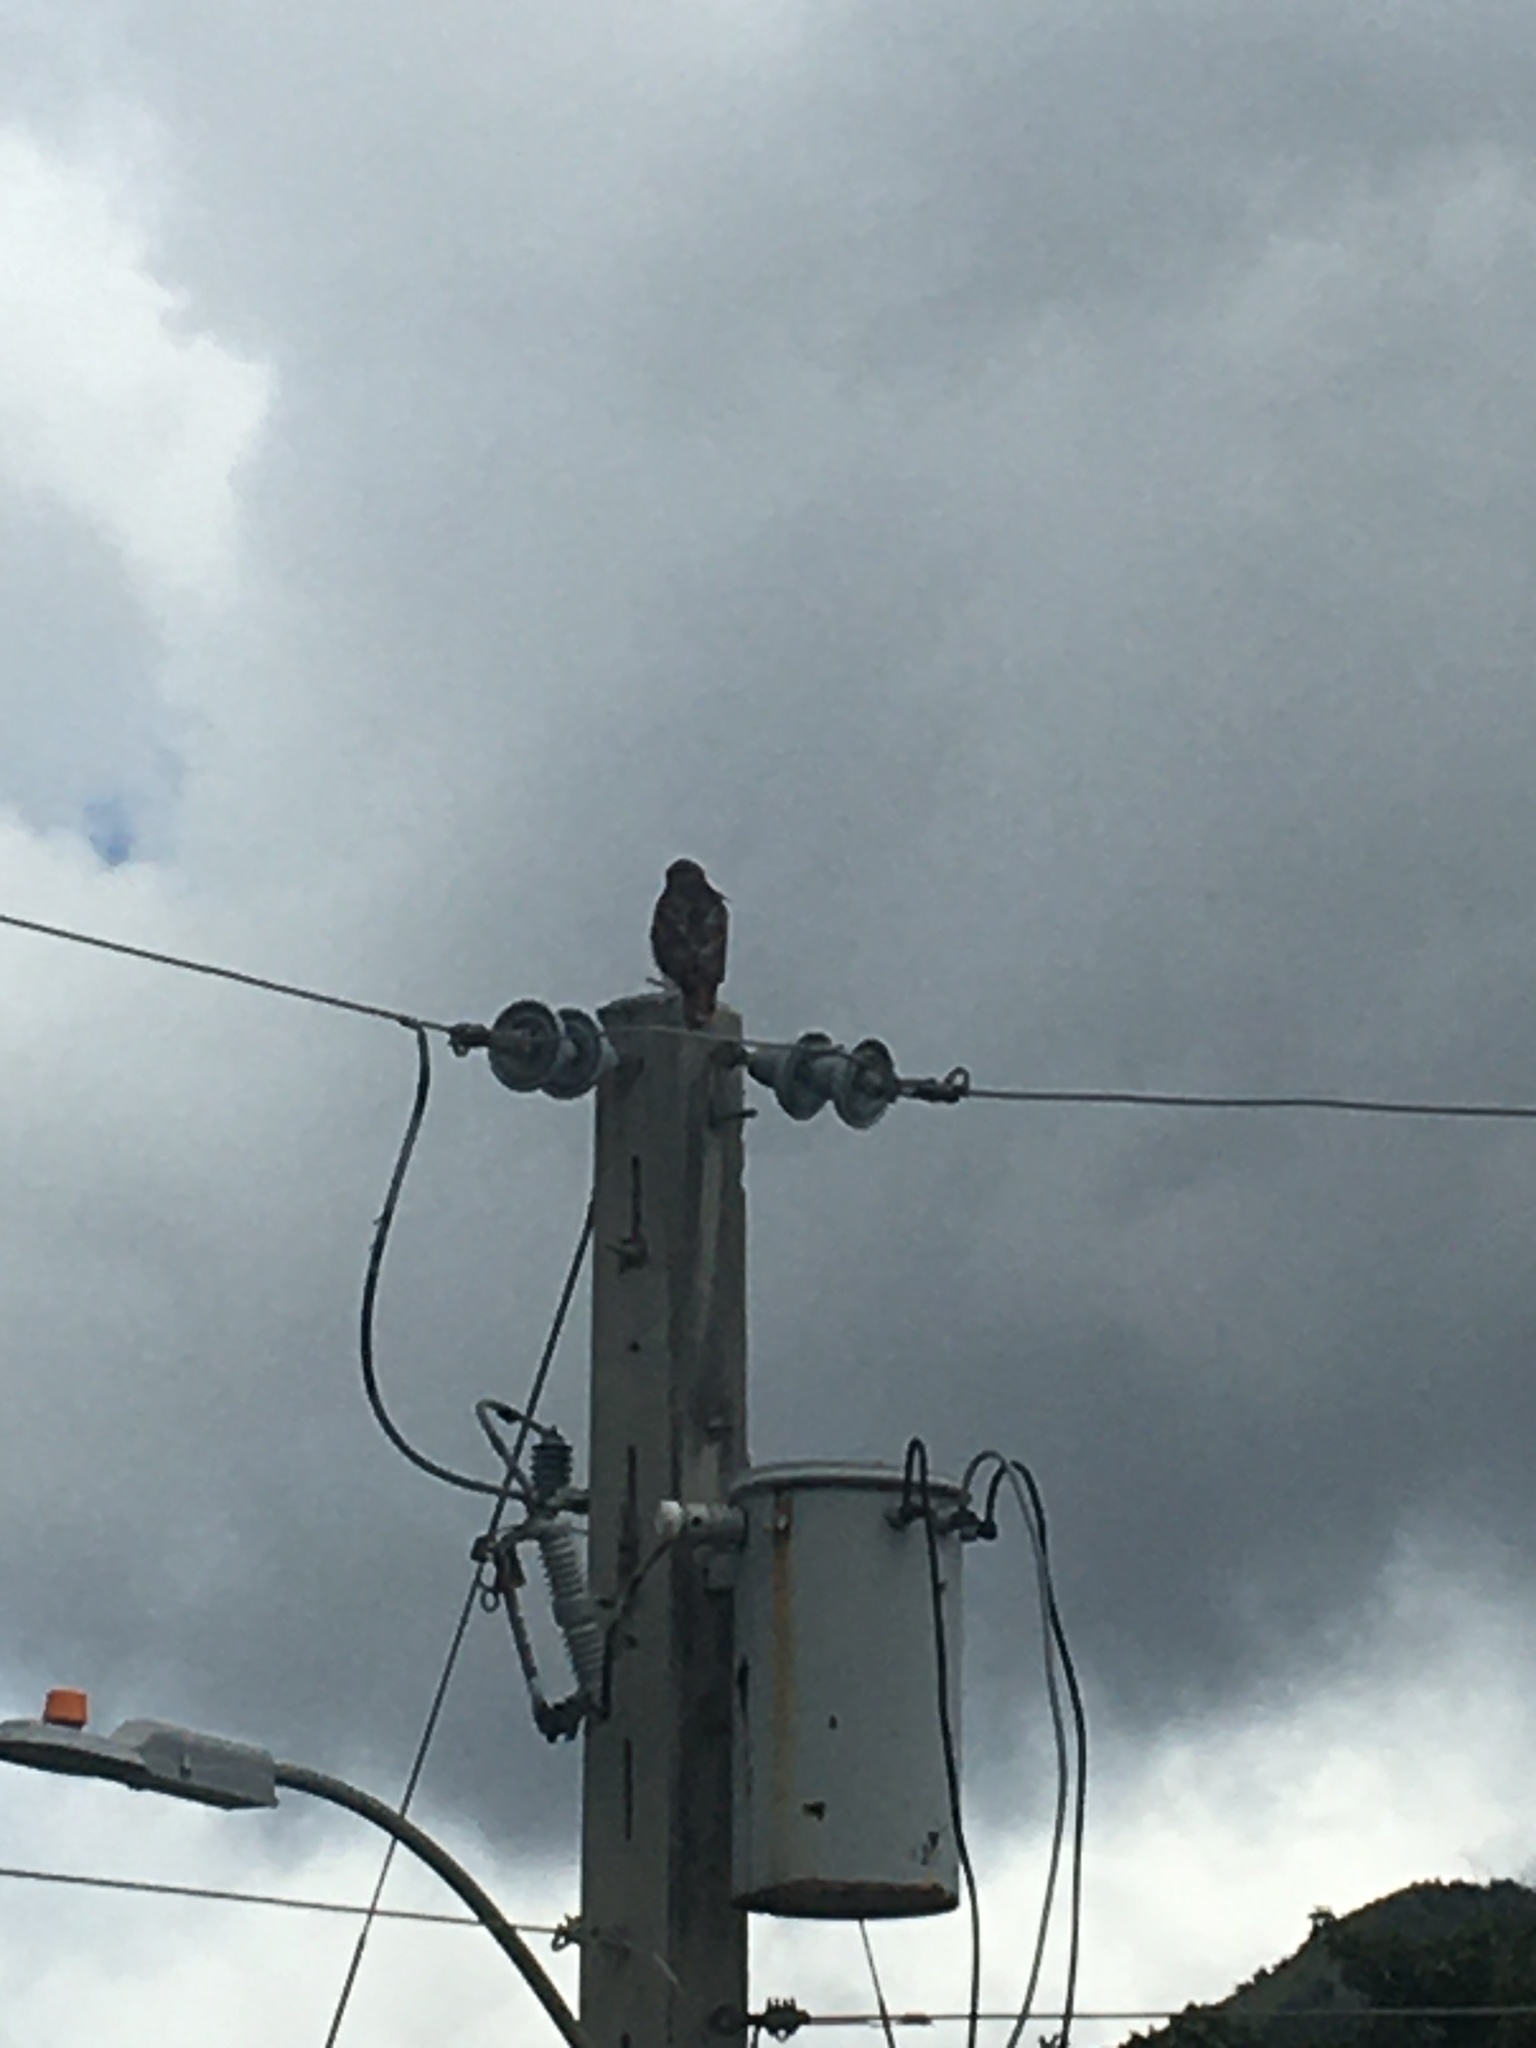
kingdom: Animalia
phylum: Chordata
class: Aves
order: Accipitriformes
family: Accipitridae
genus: Buteo
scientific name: Buteo jamaicensis
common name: Red-tailed hawk
